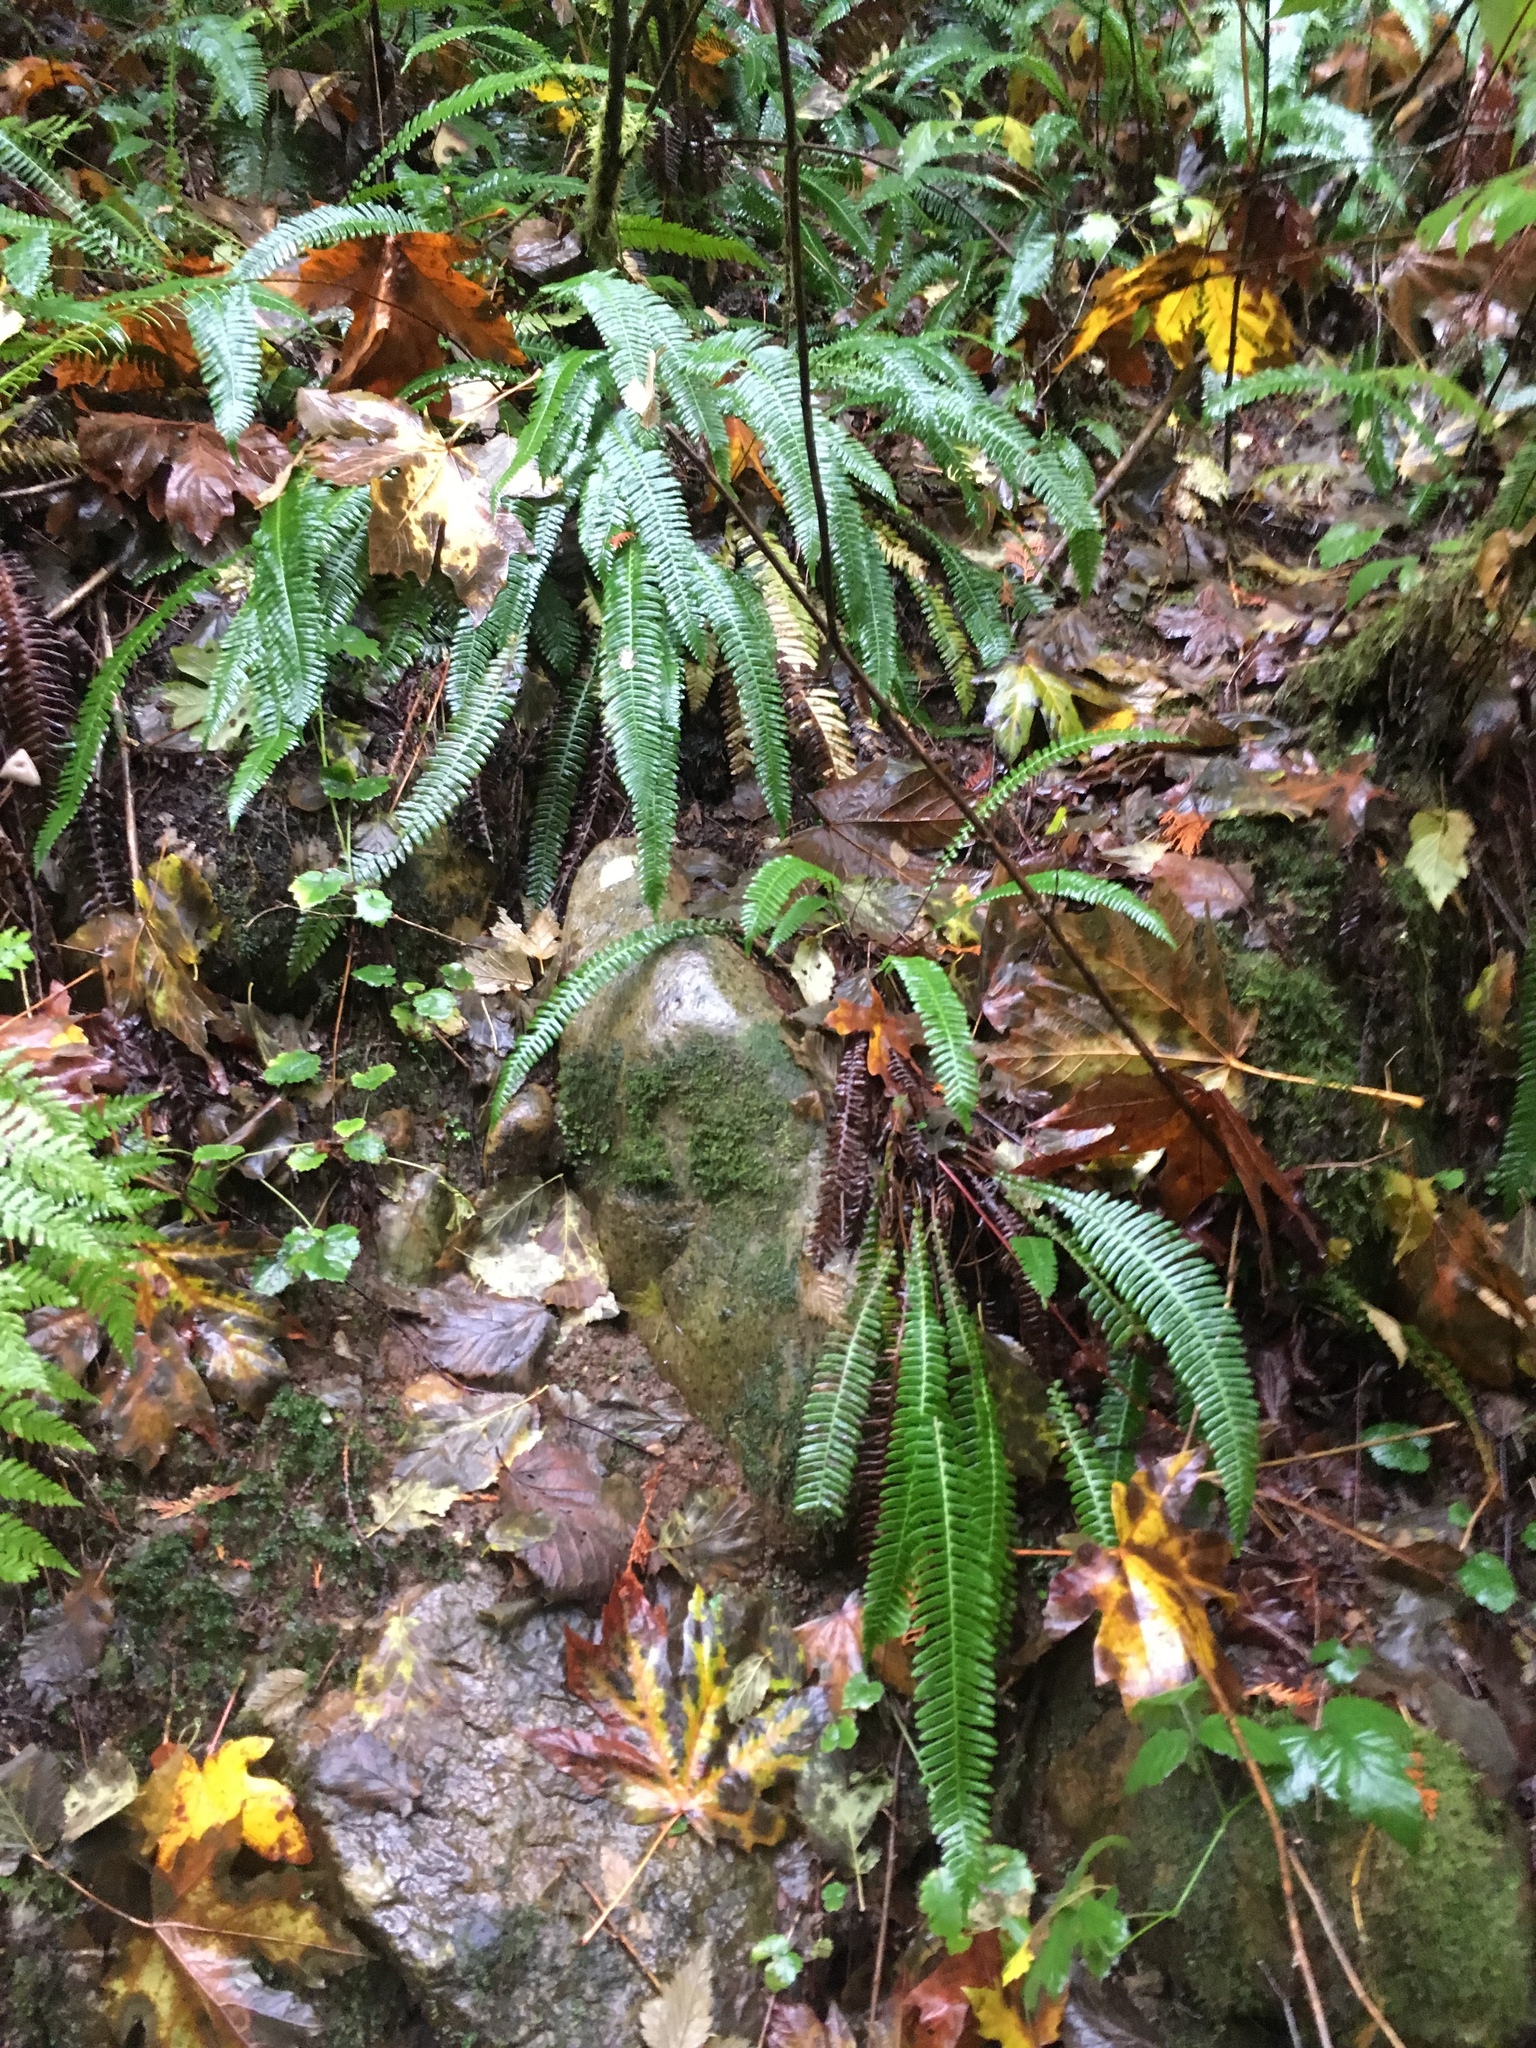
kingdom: Plantae
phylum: Tracheophyta
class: Polypodiopsida
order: Polypodiales
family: Blechnaceae
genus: Struthiopteris
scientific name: Struthiopteris spicant
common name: Deer fern
